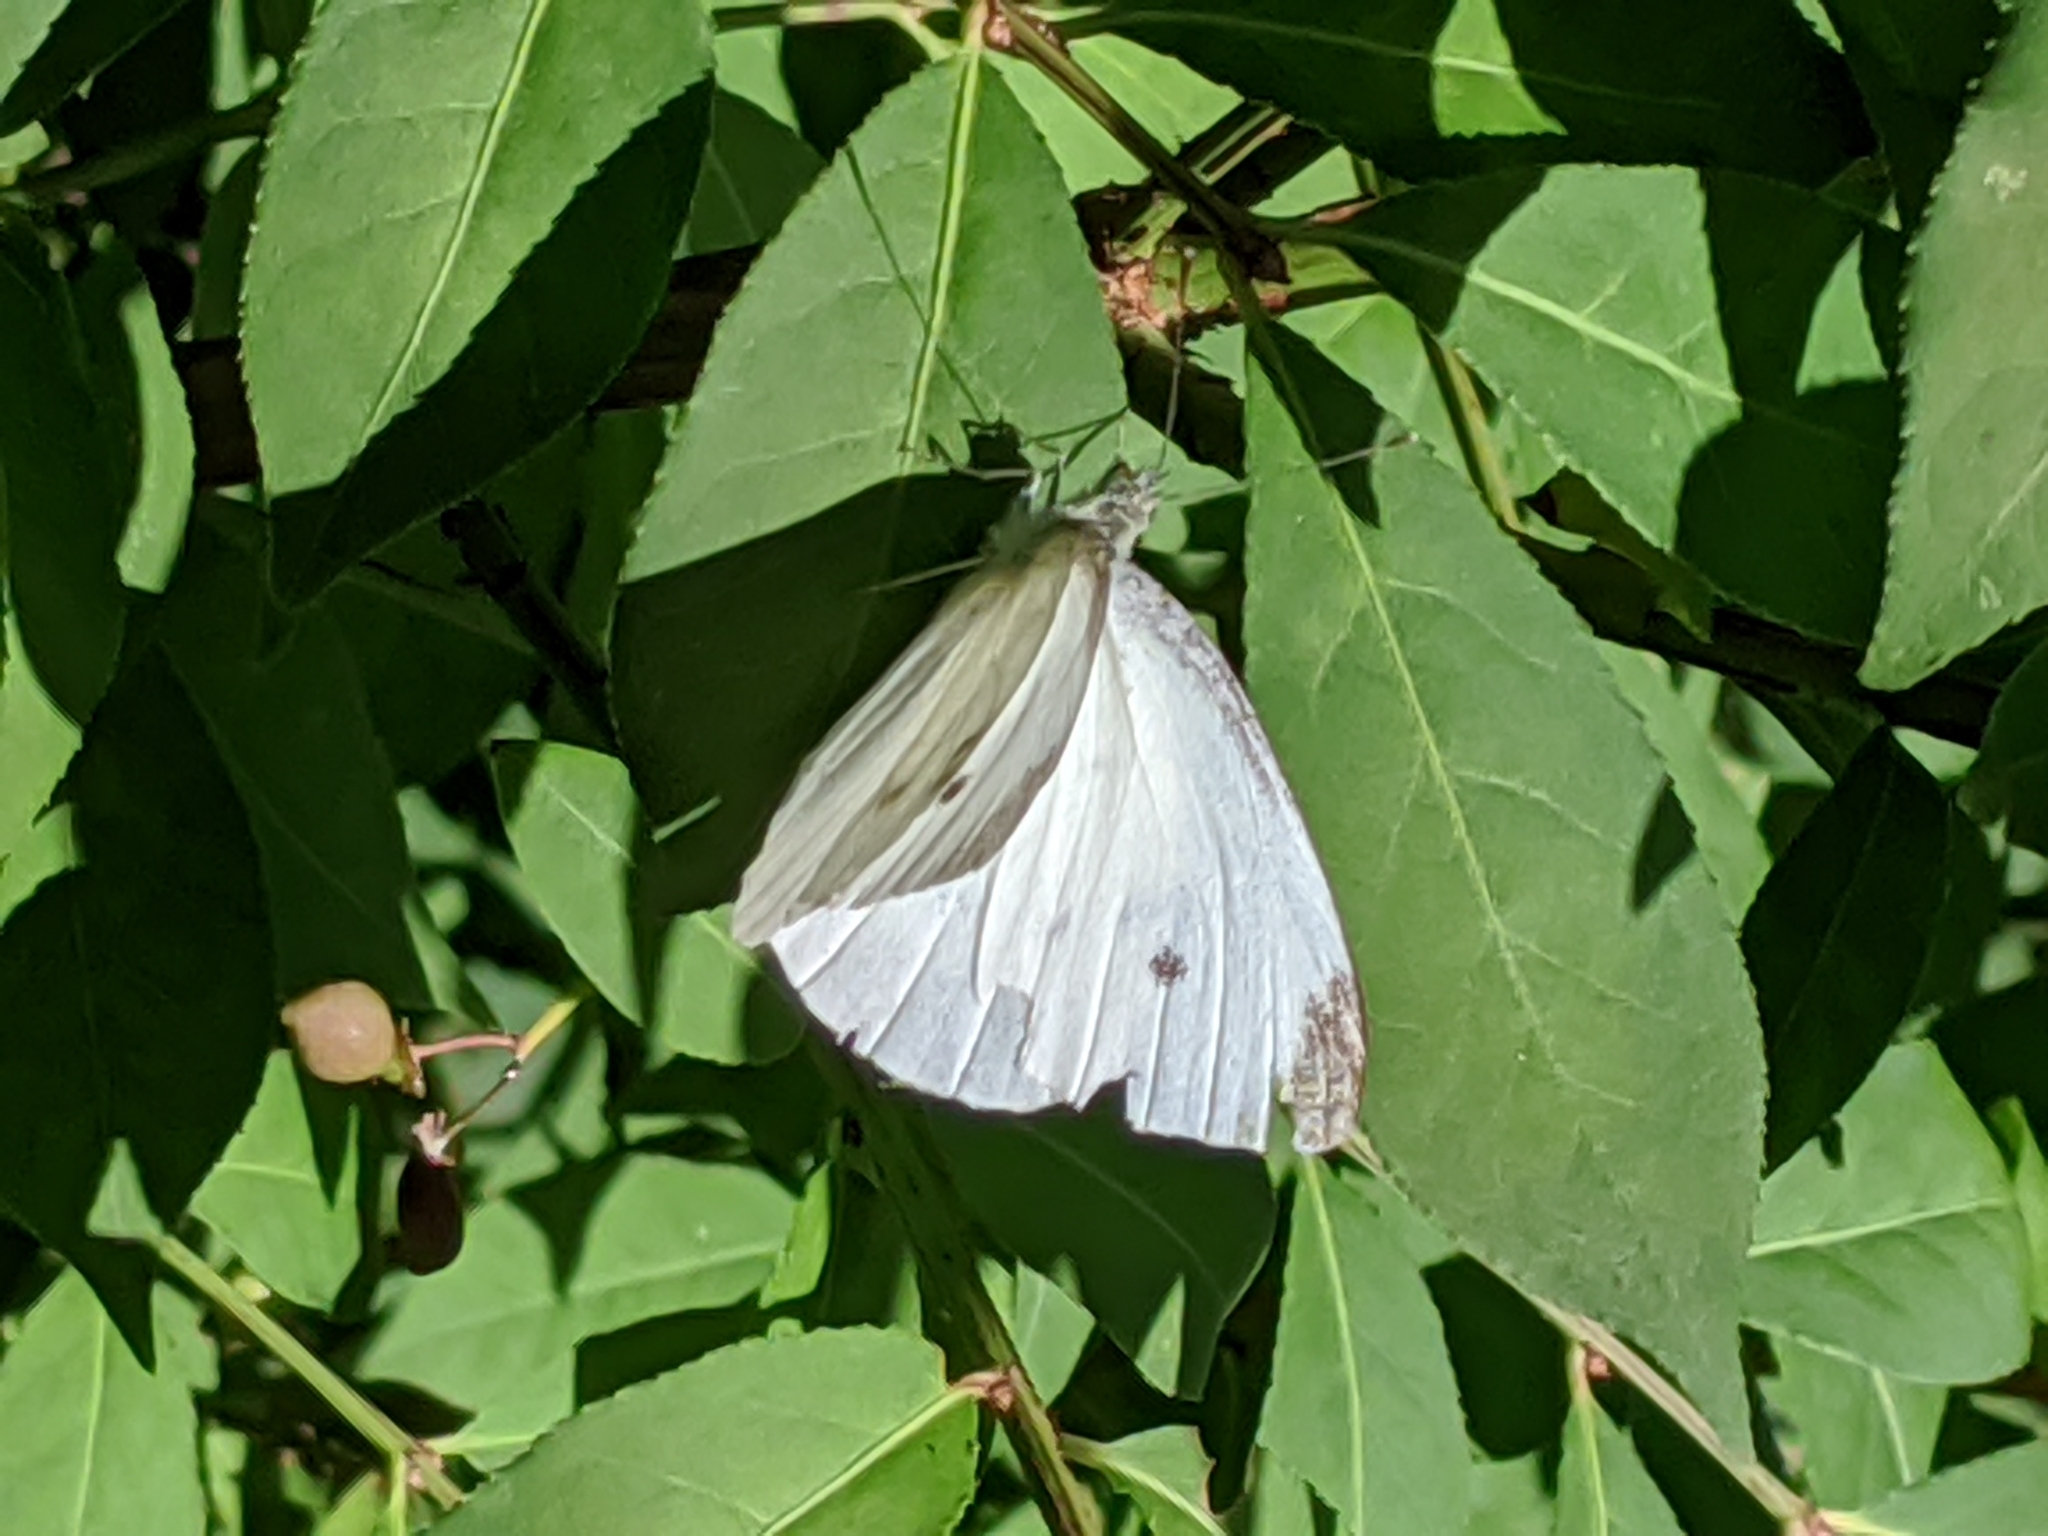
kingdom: Animalia
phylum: Arthropoda
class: Insecta
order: Lepidoptera
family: Pieridae
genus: Pieris
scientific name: Pieris rapae
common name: Small white
